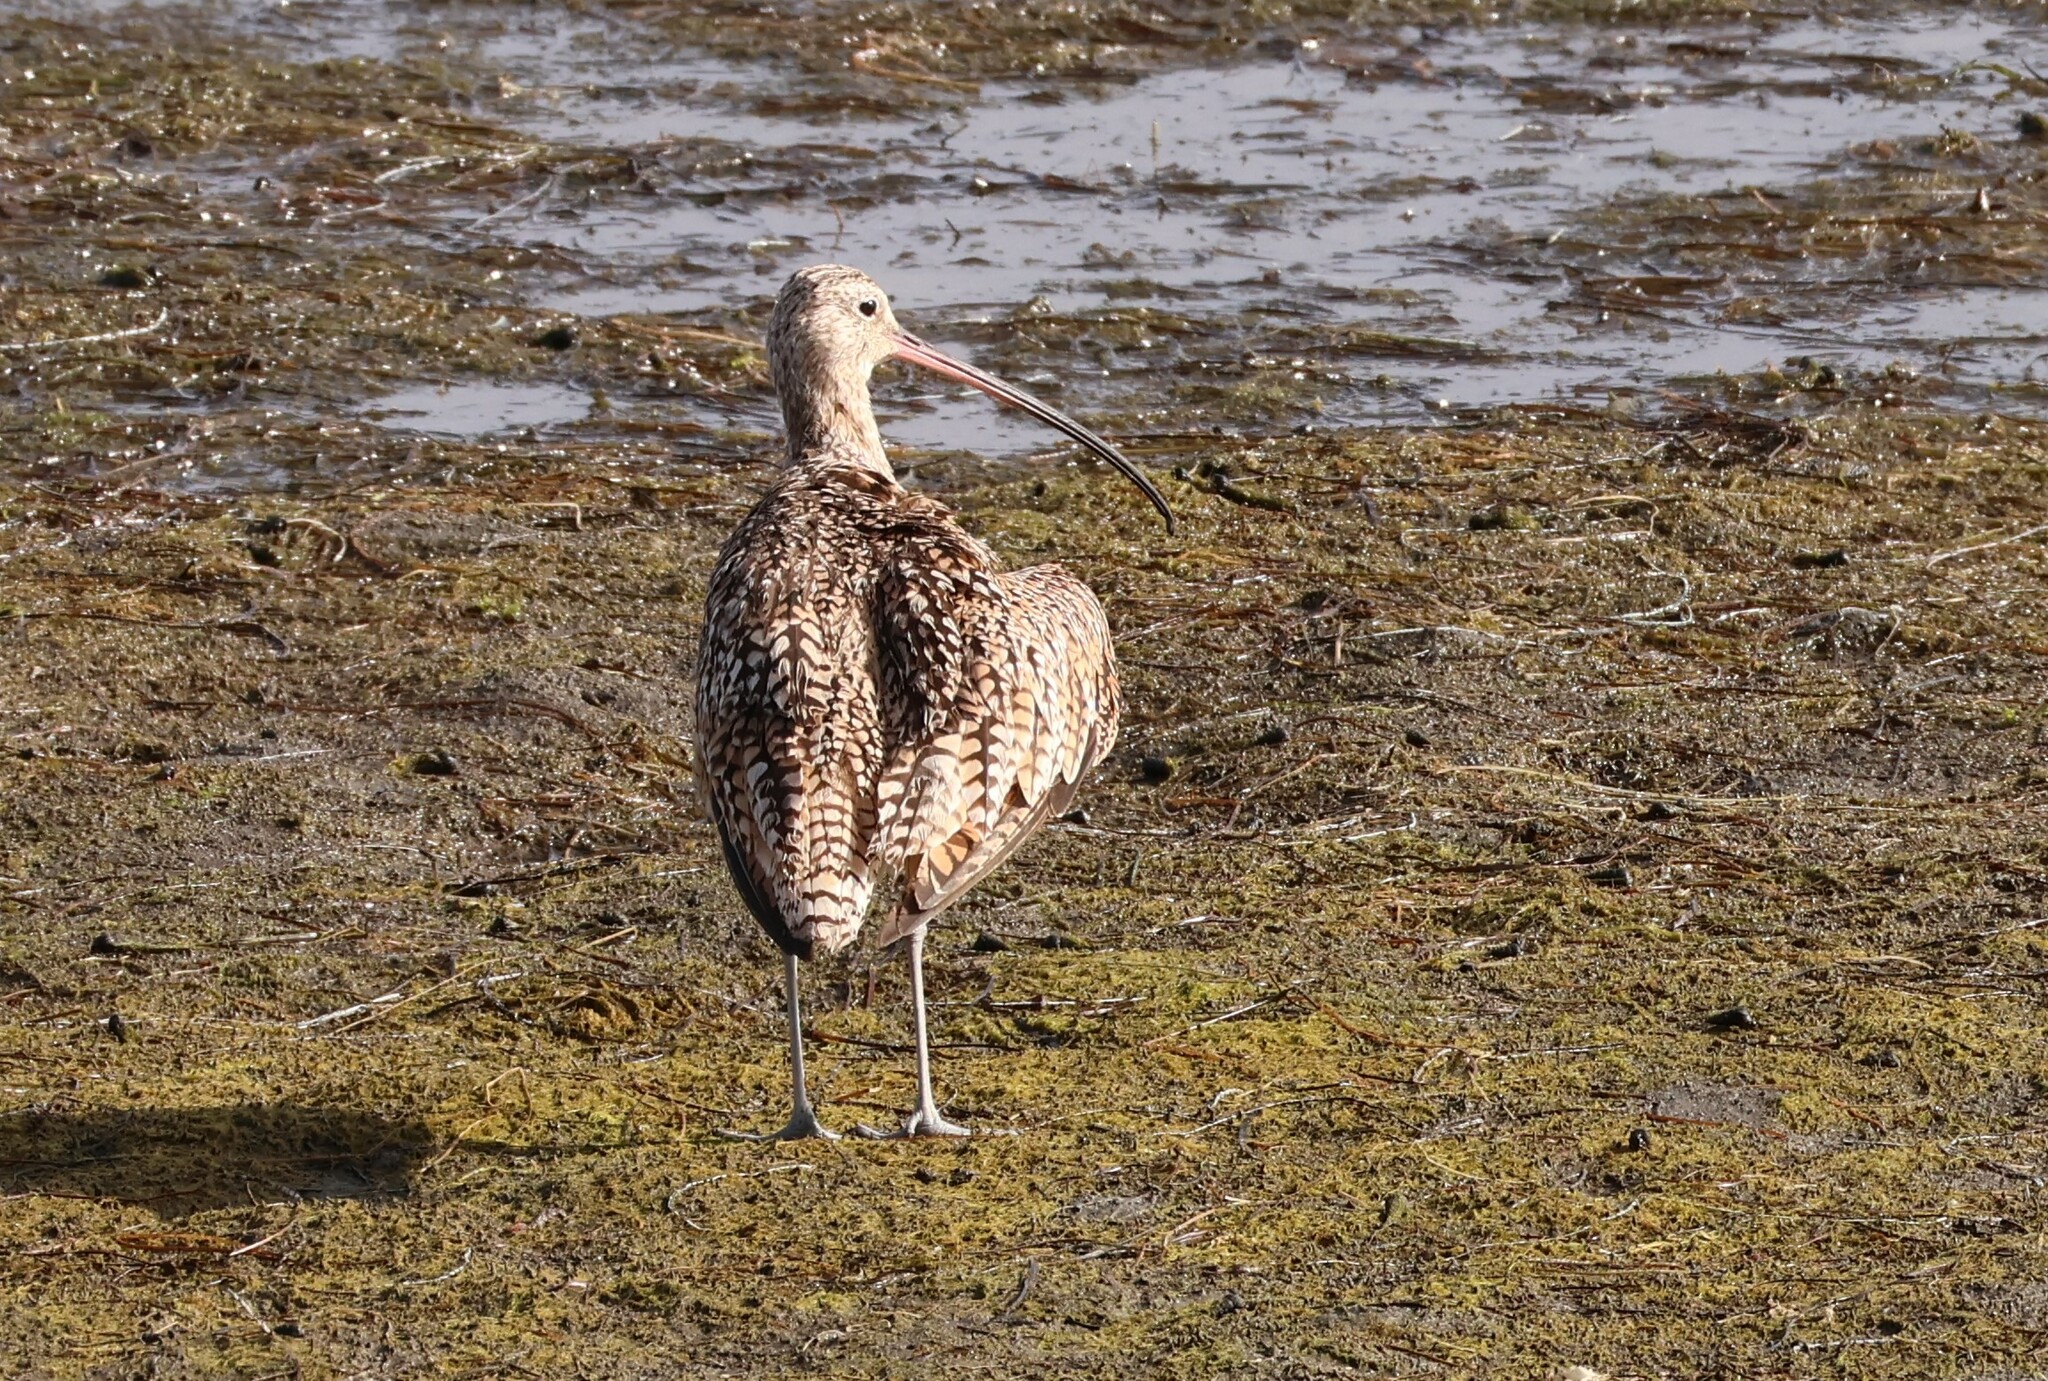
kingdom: Animalia
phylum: Chordata
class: Aves
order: Charadriiformes
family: Scolopacidae
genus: Numenius
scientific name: Numenius americanus
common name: Long-billed curlew
